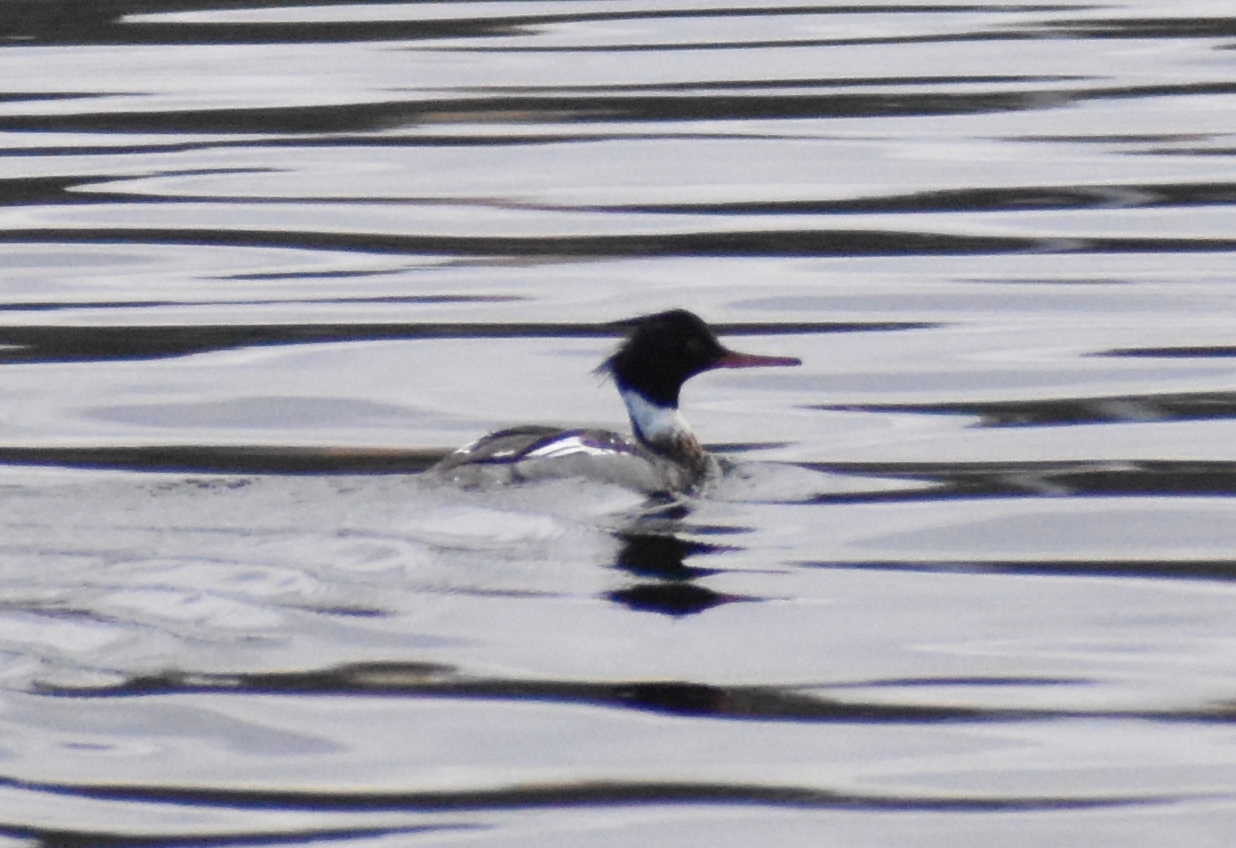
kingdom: Animalia
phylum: Chordata
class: Aves
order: Anseriformes
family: Anatidae
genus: Mergus
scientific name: Mergus serrator
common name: Red-breasted merganser
